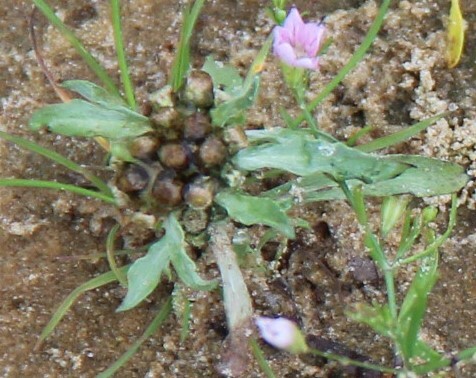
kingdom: Plantae
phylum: Tracheophyta
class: Magnoliopsida
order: Asterales
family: Asteraceae
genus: Gnaphalium
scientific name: Gnaphalium uliginosum
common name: Marsh cudweed
